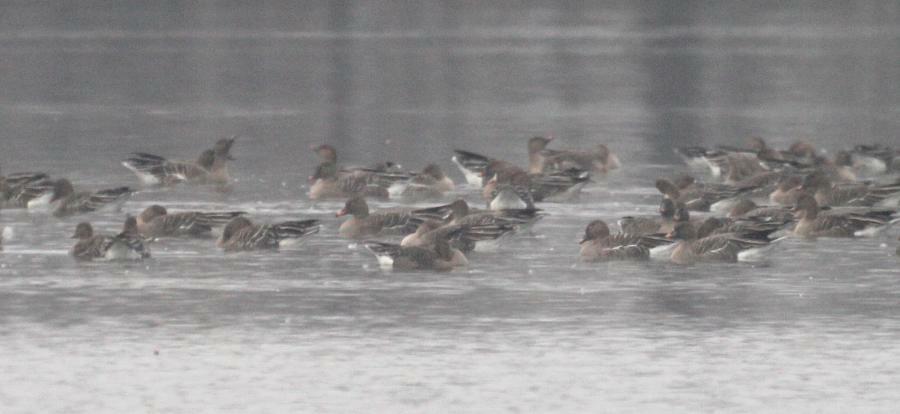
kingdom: Animalia
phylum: Chordata
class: Aves
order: Anseriformes
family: Anatidae
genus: Anser
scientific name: Anser serrirostris
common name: Tundra bean goose
